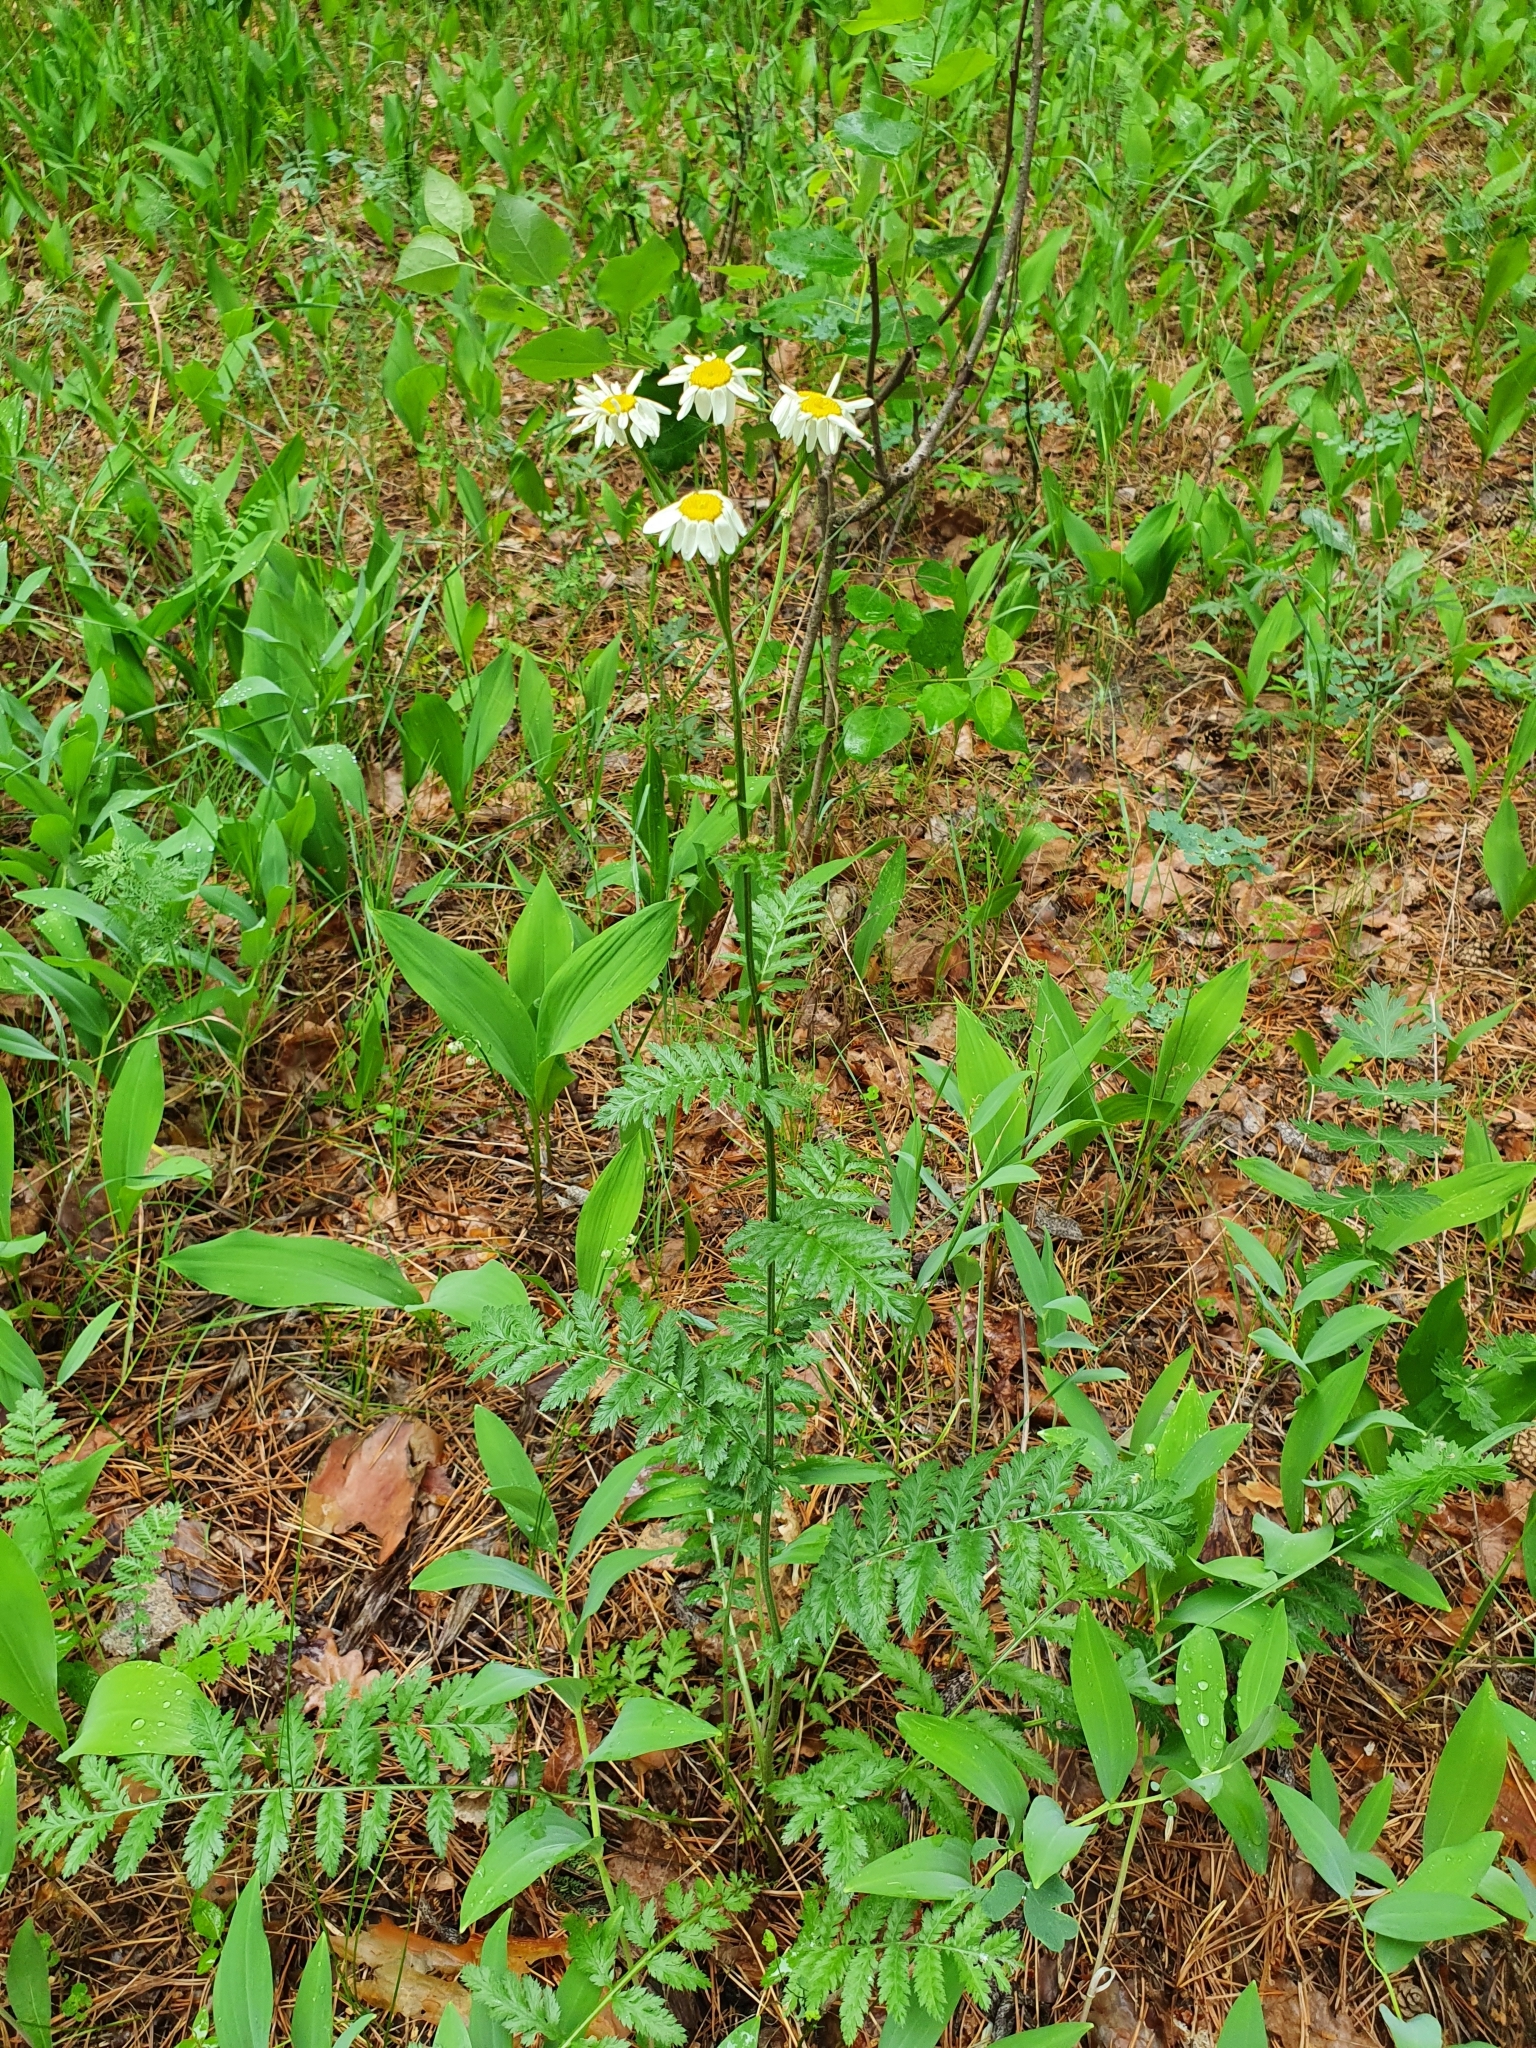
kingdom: Plantae
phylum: Tracheophyta
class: Magnoliopsida
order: Asterales
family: Asteraceae
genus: Tanacetum
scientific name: Tanacetum corymbosum
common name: Scentless feverfew
